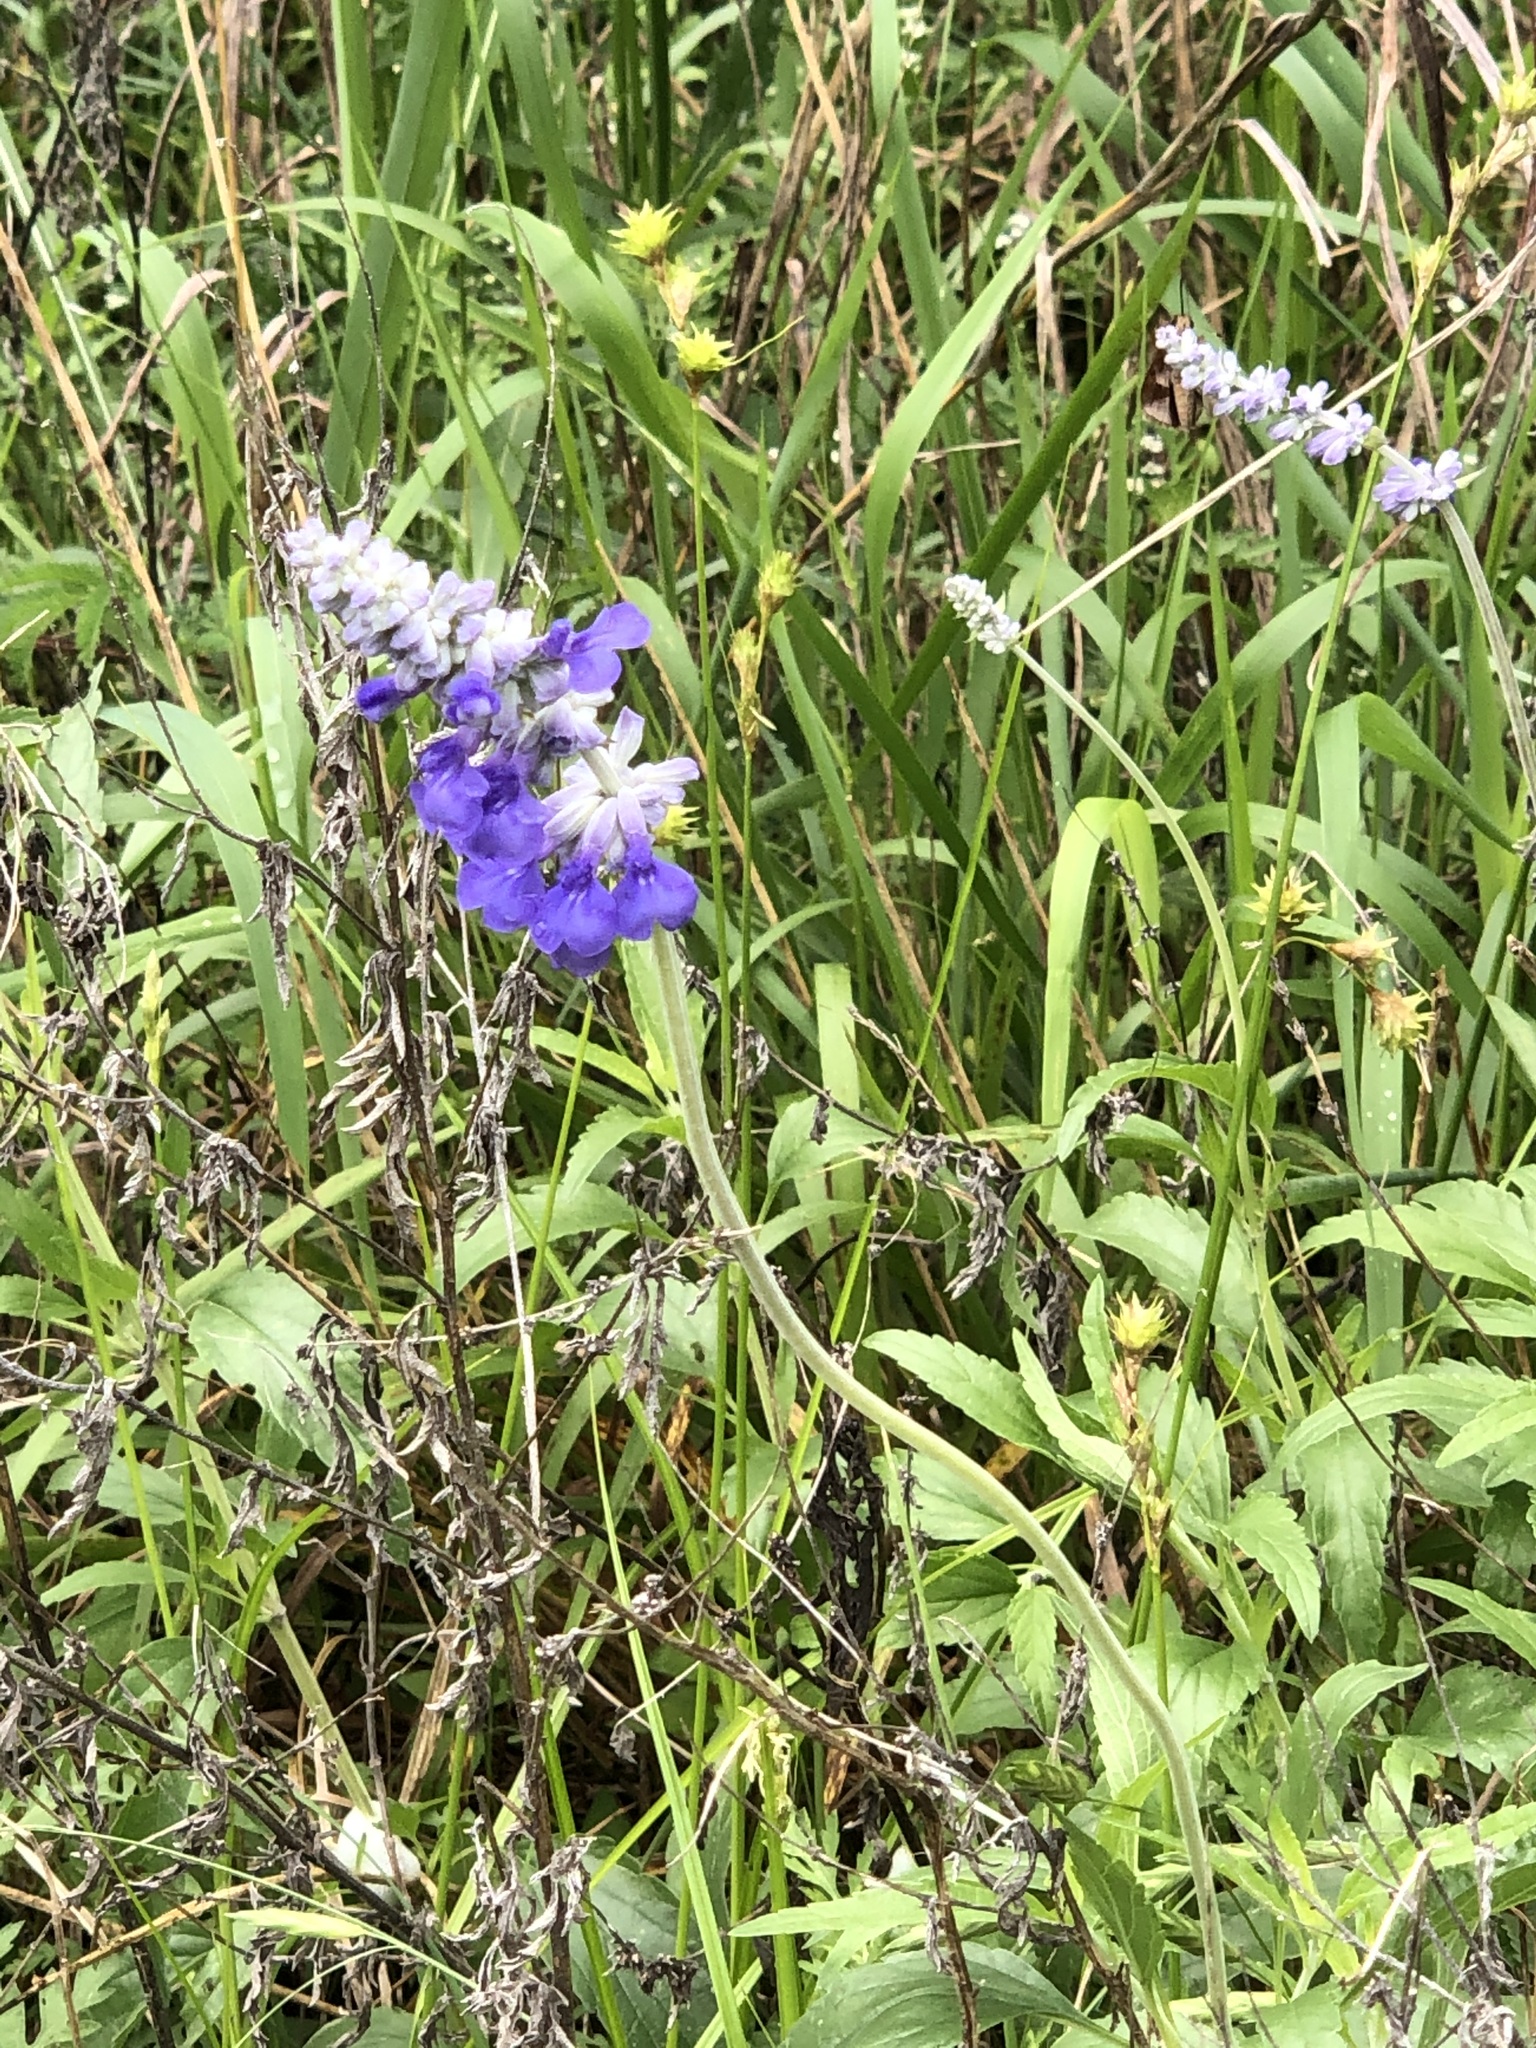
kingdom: Plantae
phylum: Tracheophyta
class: Magnoliopsida
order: Lamiales
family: Lamiaceae
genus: Salvia
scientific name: Salvia farinacea
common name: Mealy sage
